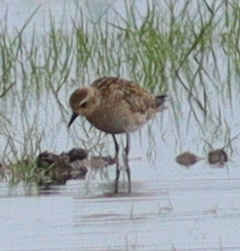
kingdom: Animalia
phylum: Chordata
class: Aves
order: Charadriiformes
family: Charadriidae
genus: Pluvialis
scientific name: Pluvialis fulva
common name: Pacific golden plover
